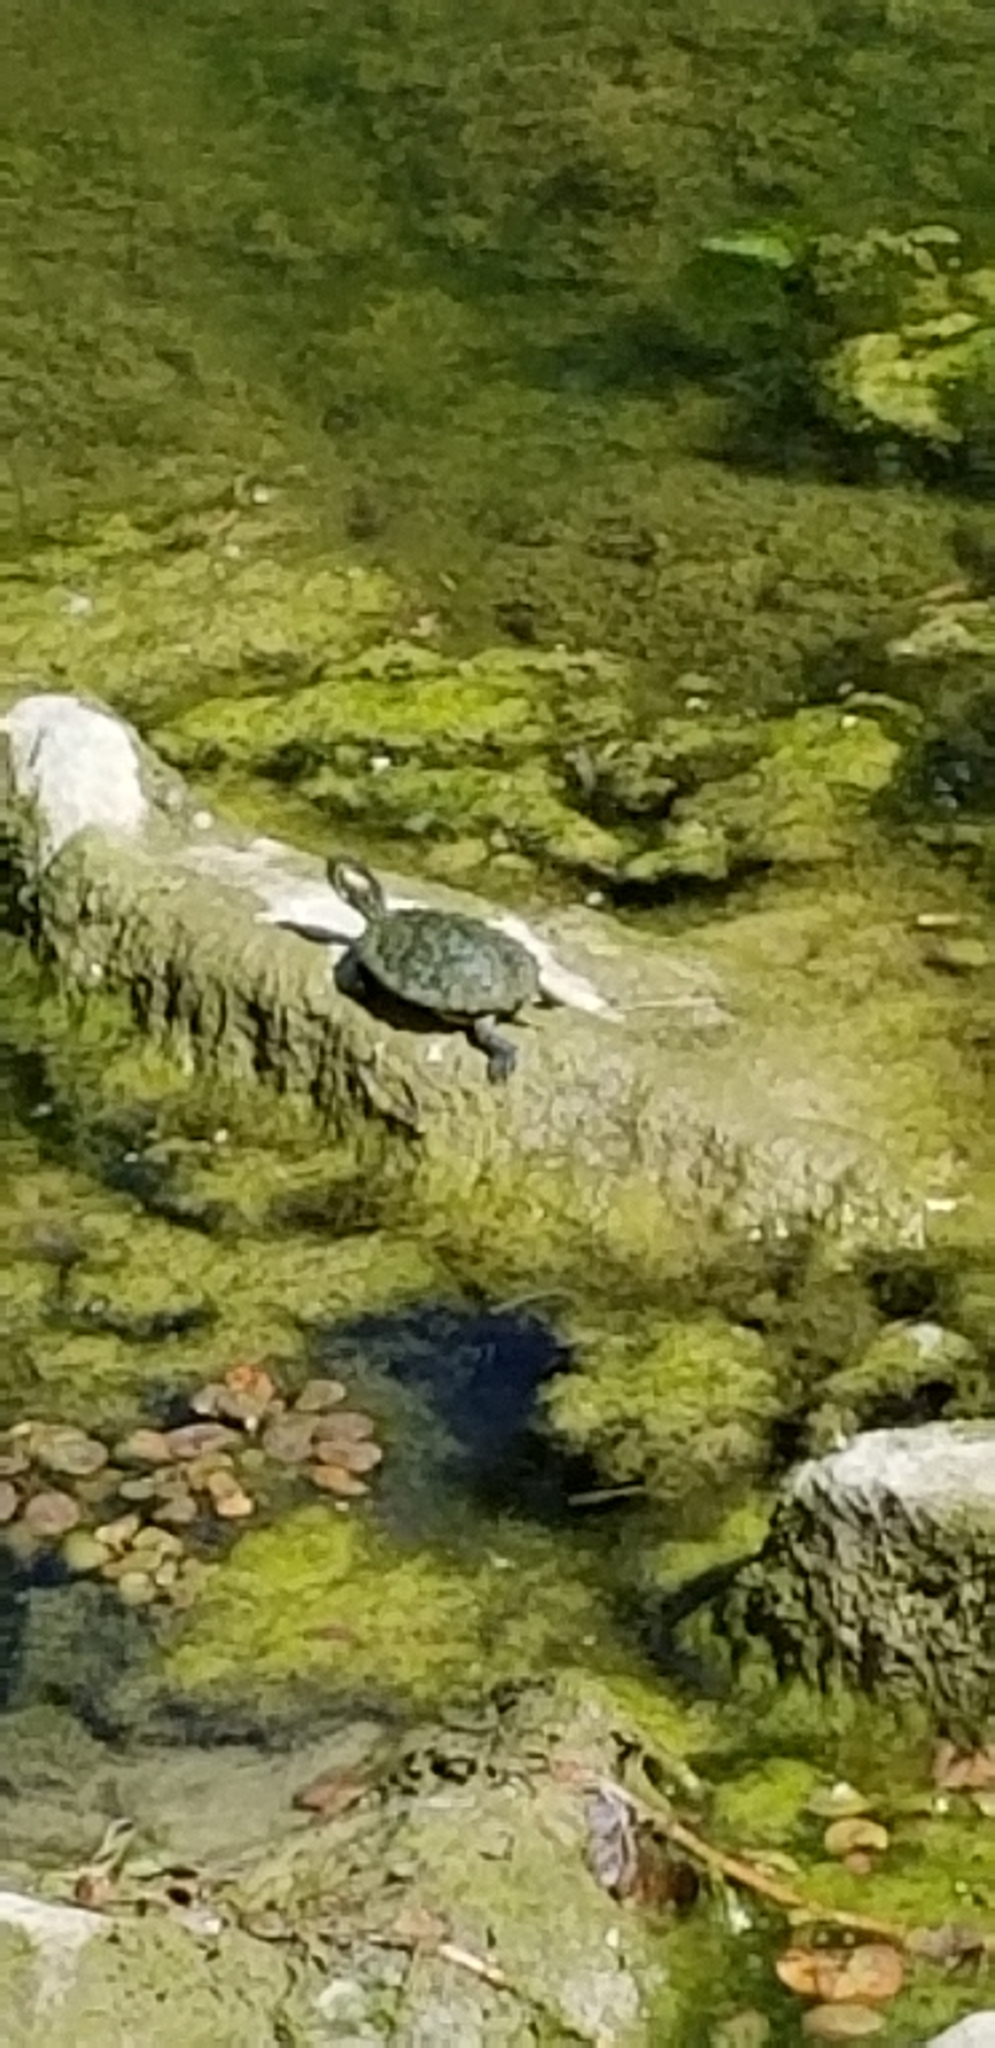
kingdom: Animalia
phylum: Chordata
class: Testudines
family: Emydidae
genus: Trachemys
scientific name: Trachemys scripta
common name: Slider
